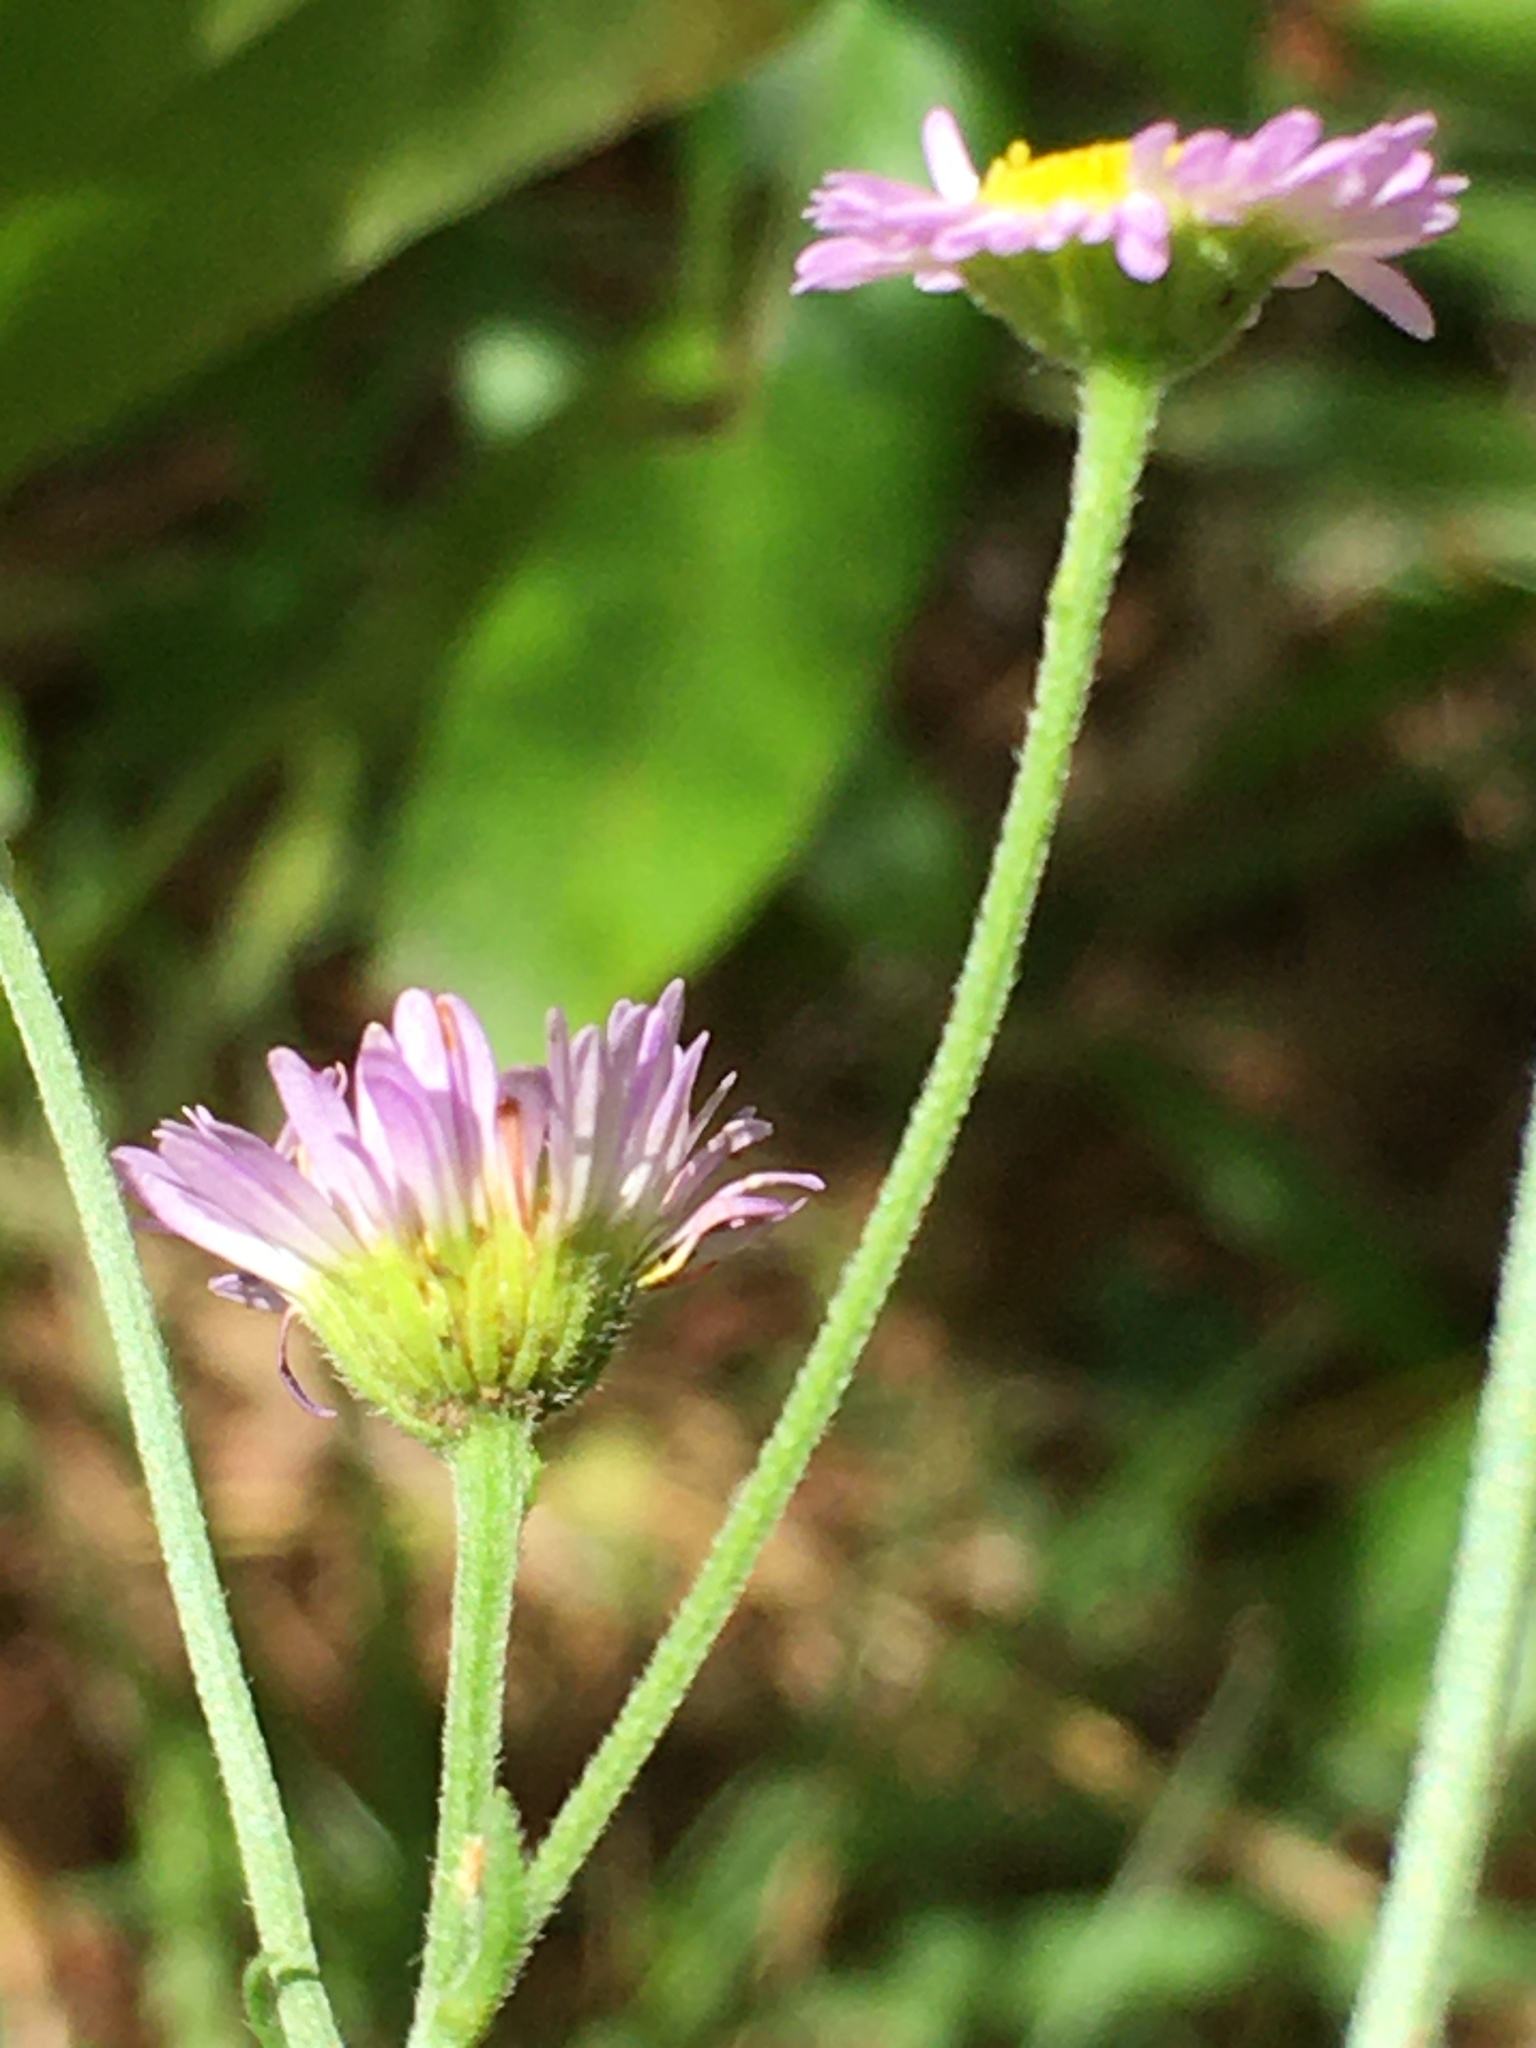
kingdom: Plantae
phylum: Tracheophyta
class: Magnoliopsida
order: Asterales
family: Asteraceae
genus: Erigeron
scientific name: Erigeron strigosus
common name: Common eastern fleabane
